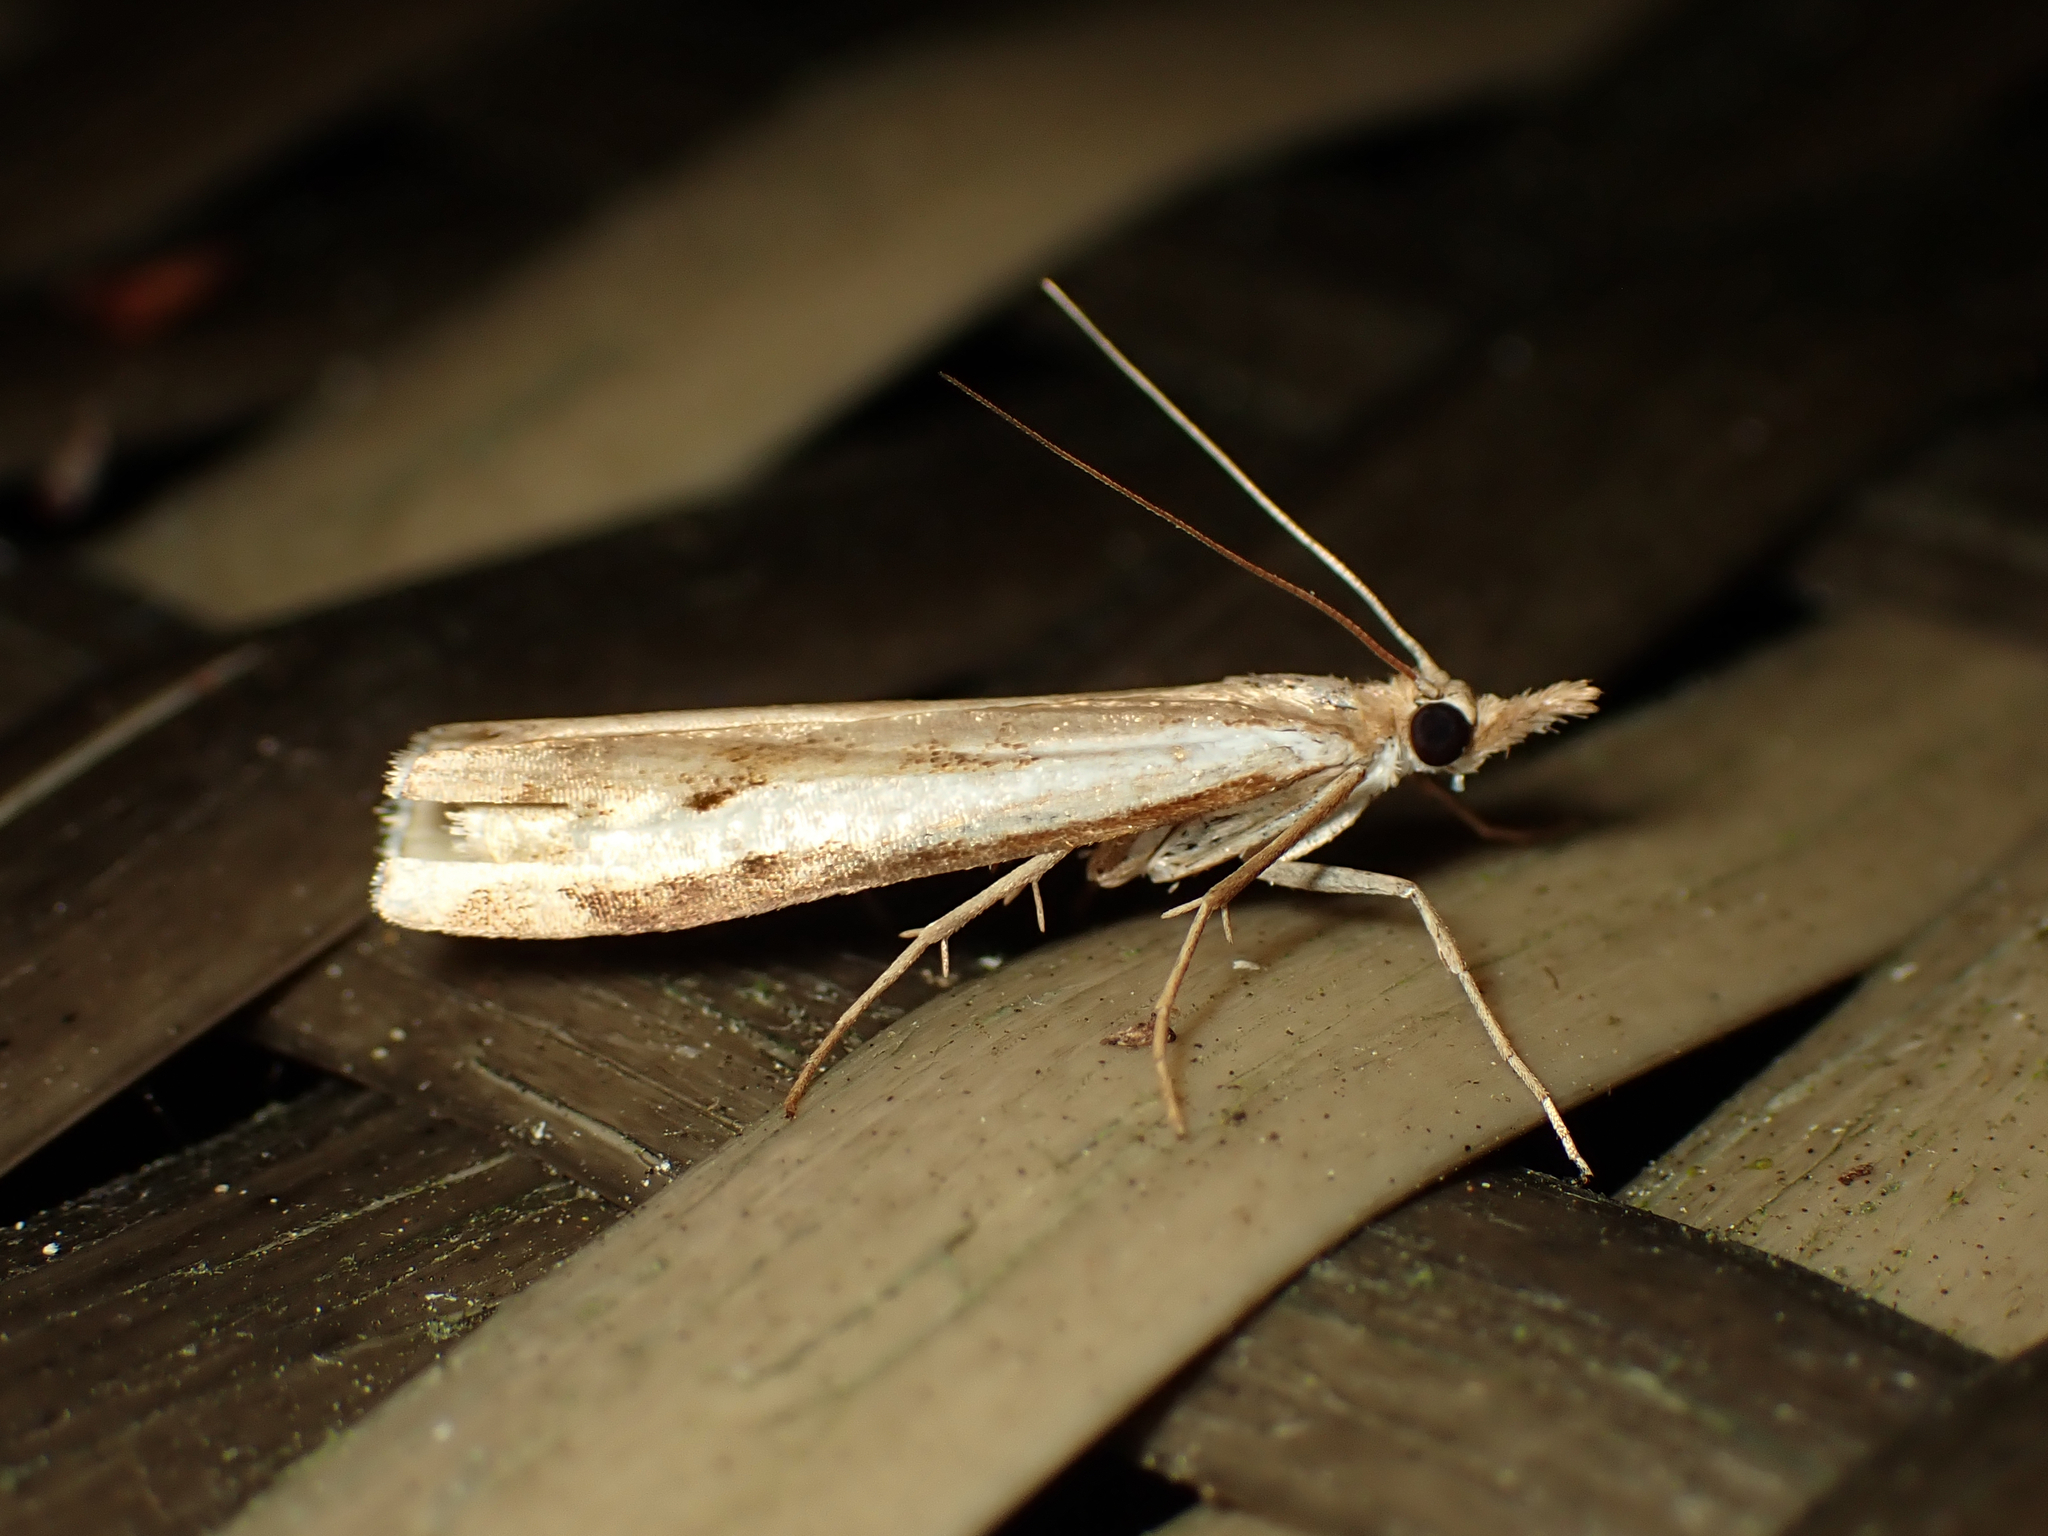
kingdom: Animalia
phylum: Arthropoda
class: Insecta
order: Lepidoptera
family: Crambidae
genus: Orocrambus
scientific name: Orocrambus flexuosellus
